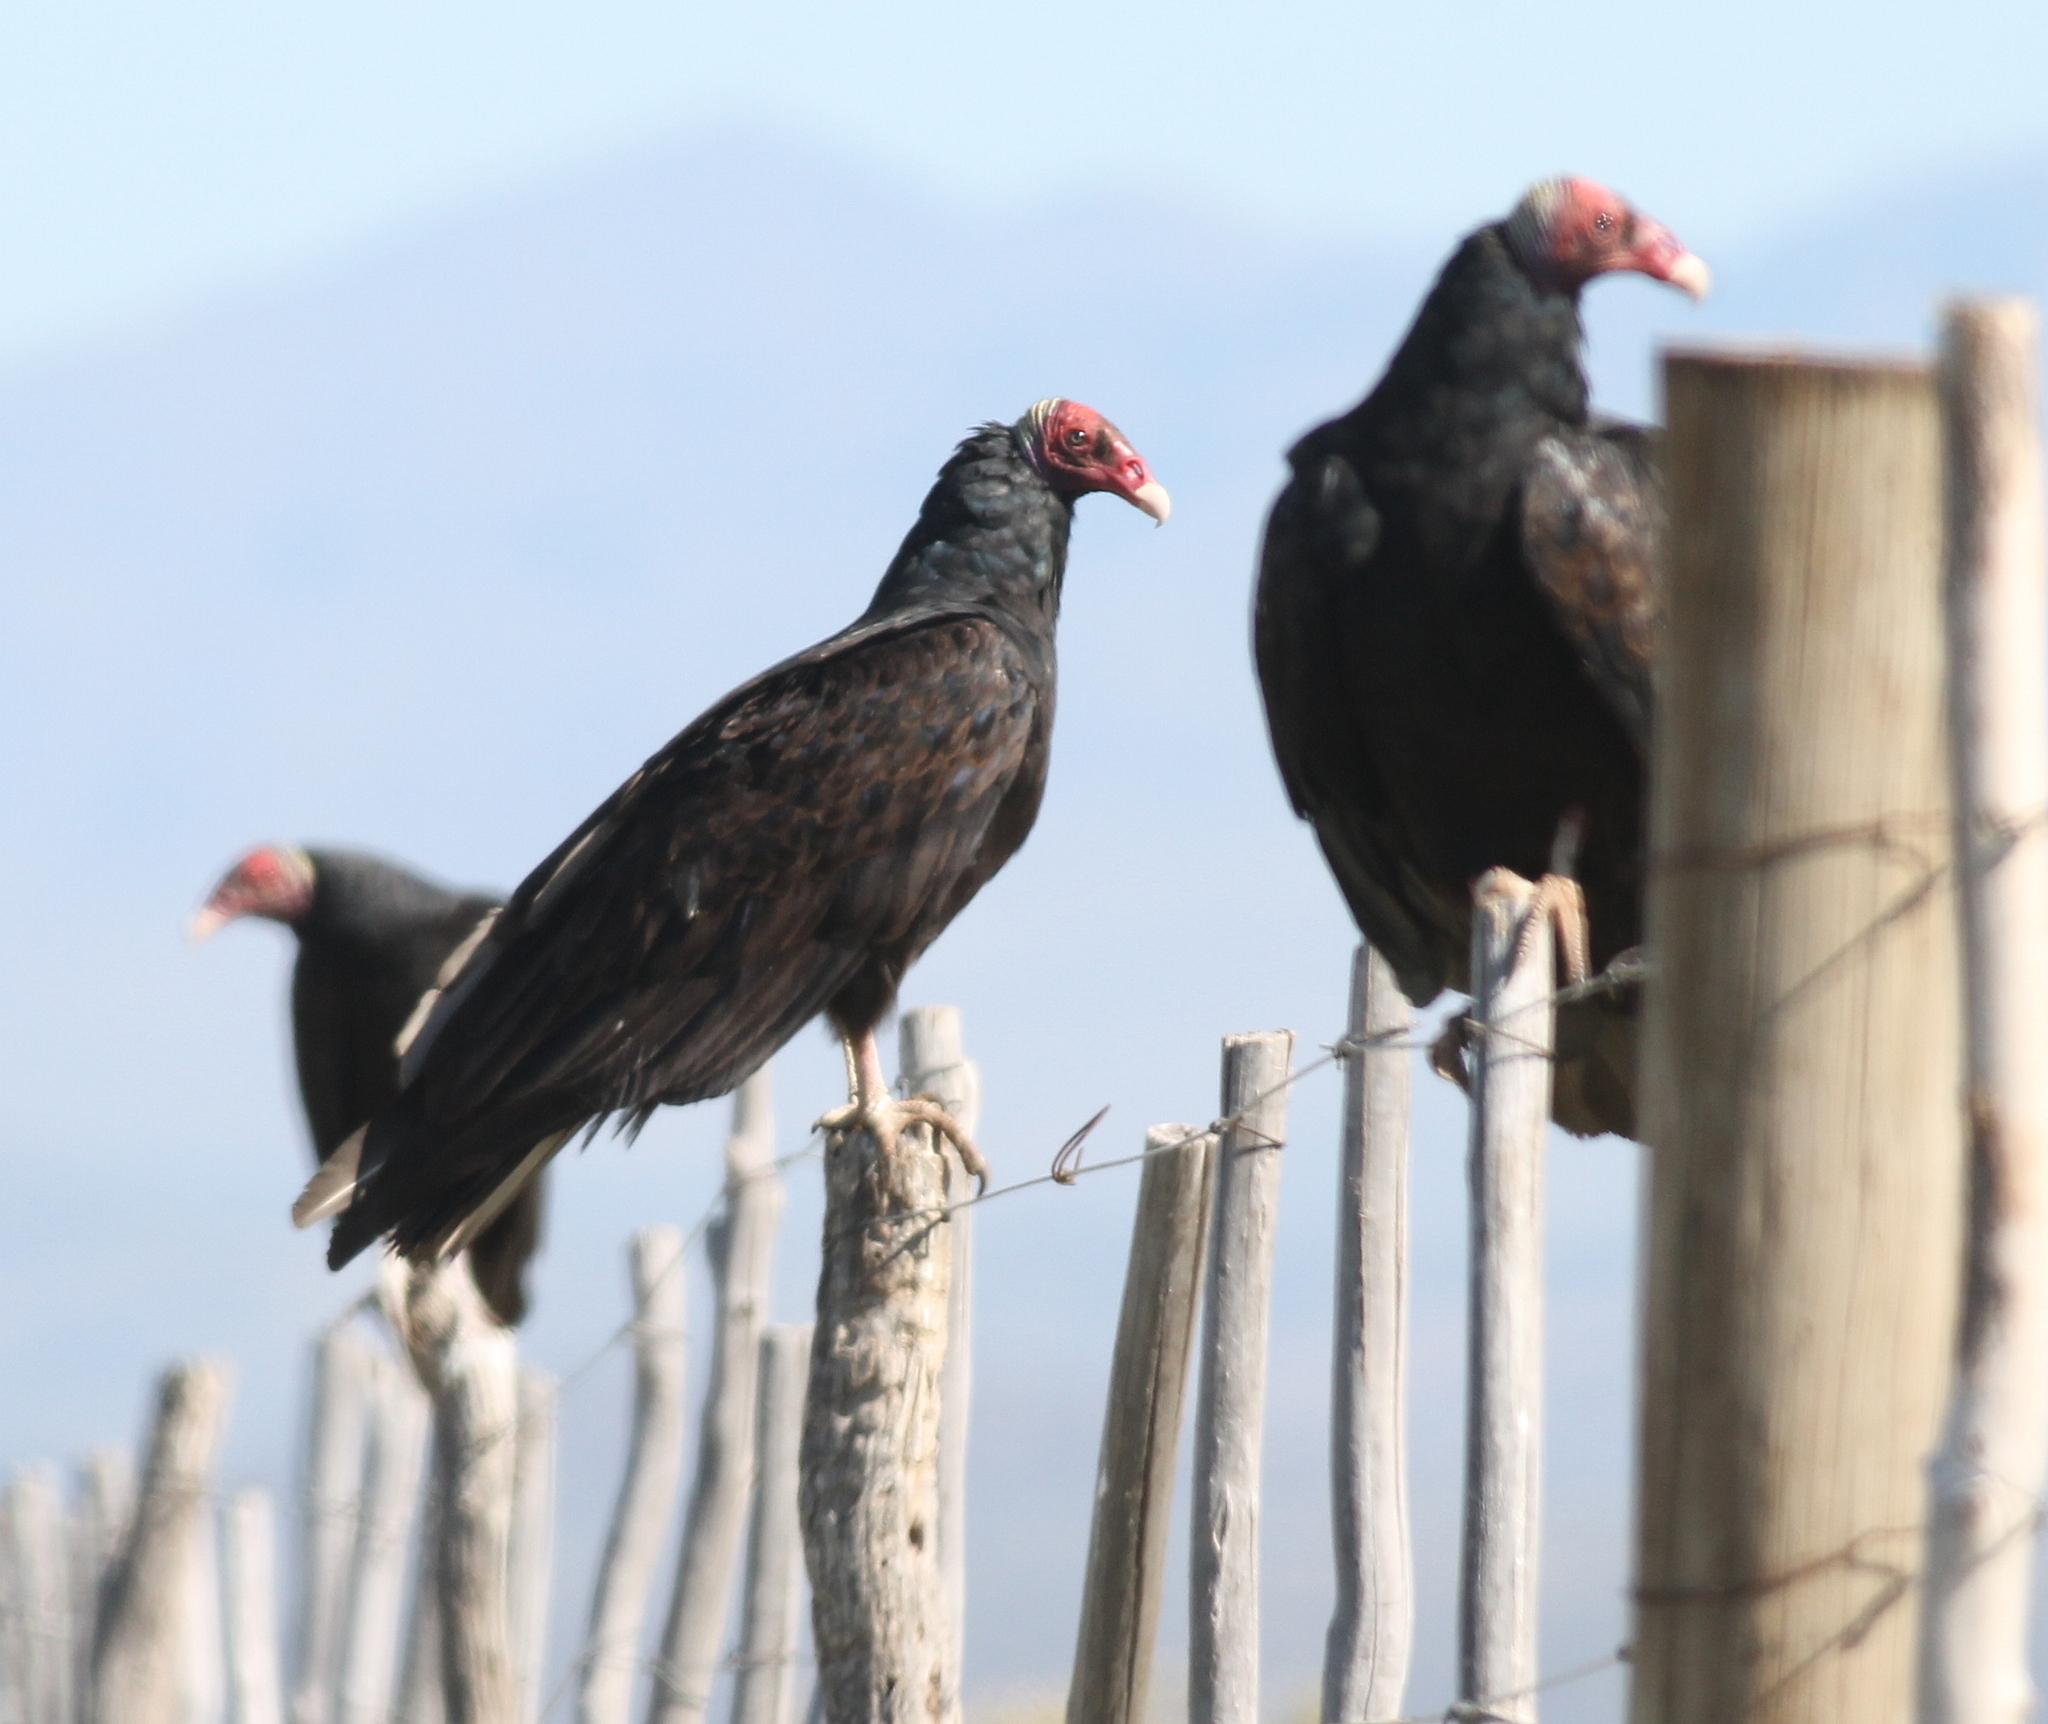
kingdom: Animalia
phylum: Chordata
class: Aves
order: Accipitriformes
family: Cathartidae
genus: Cathartes
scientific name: Cathartes aura
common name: Turkey vulture
